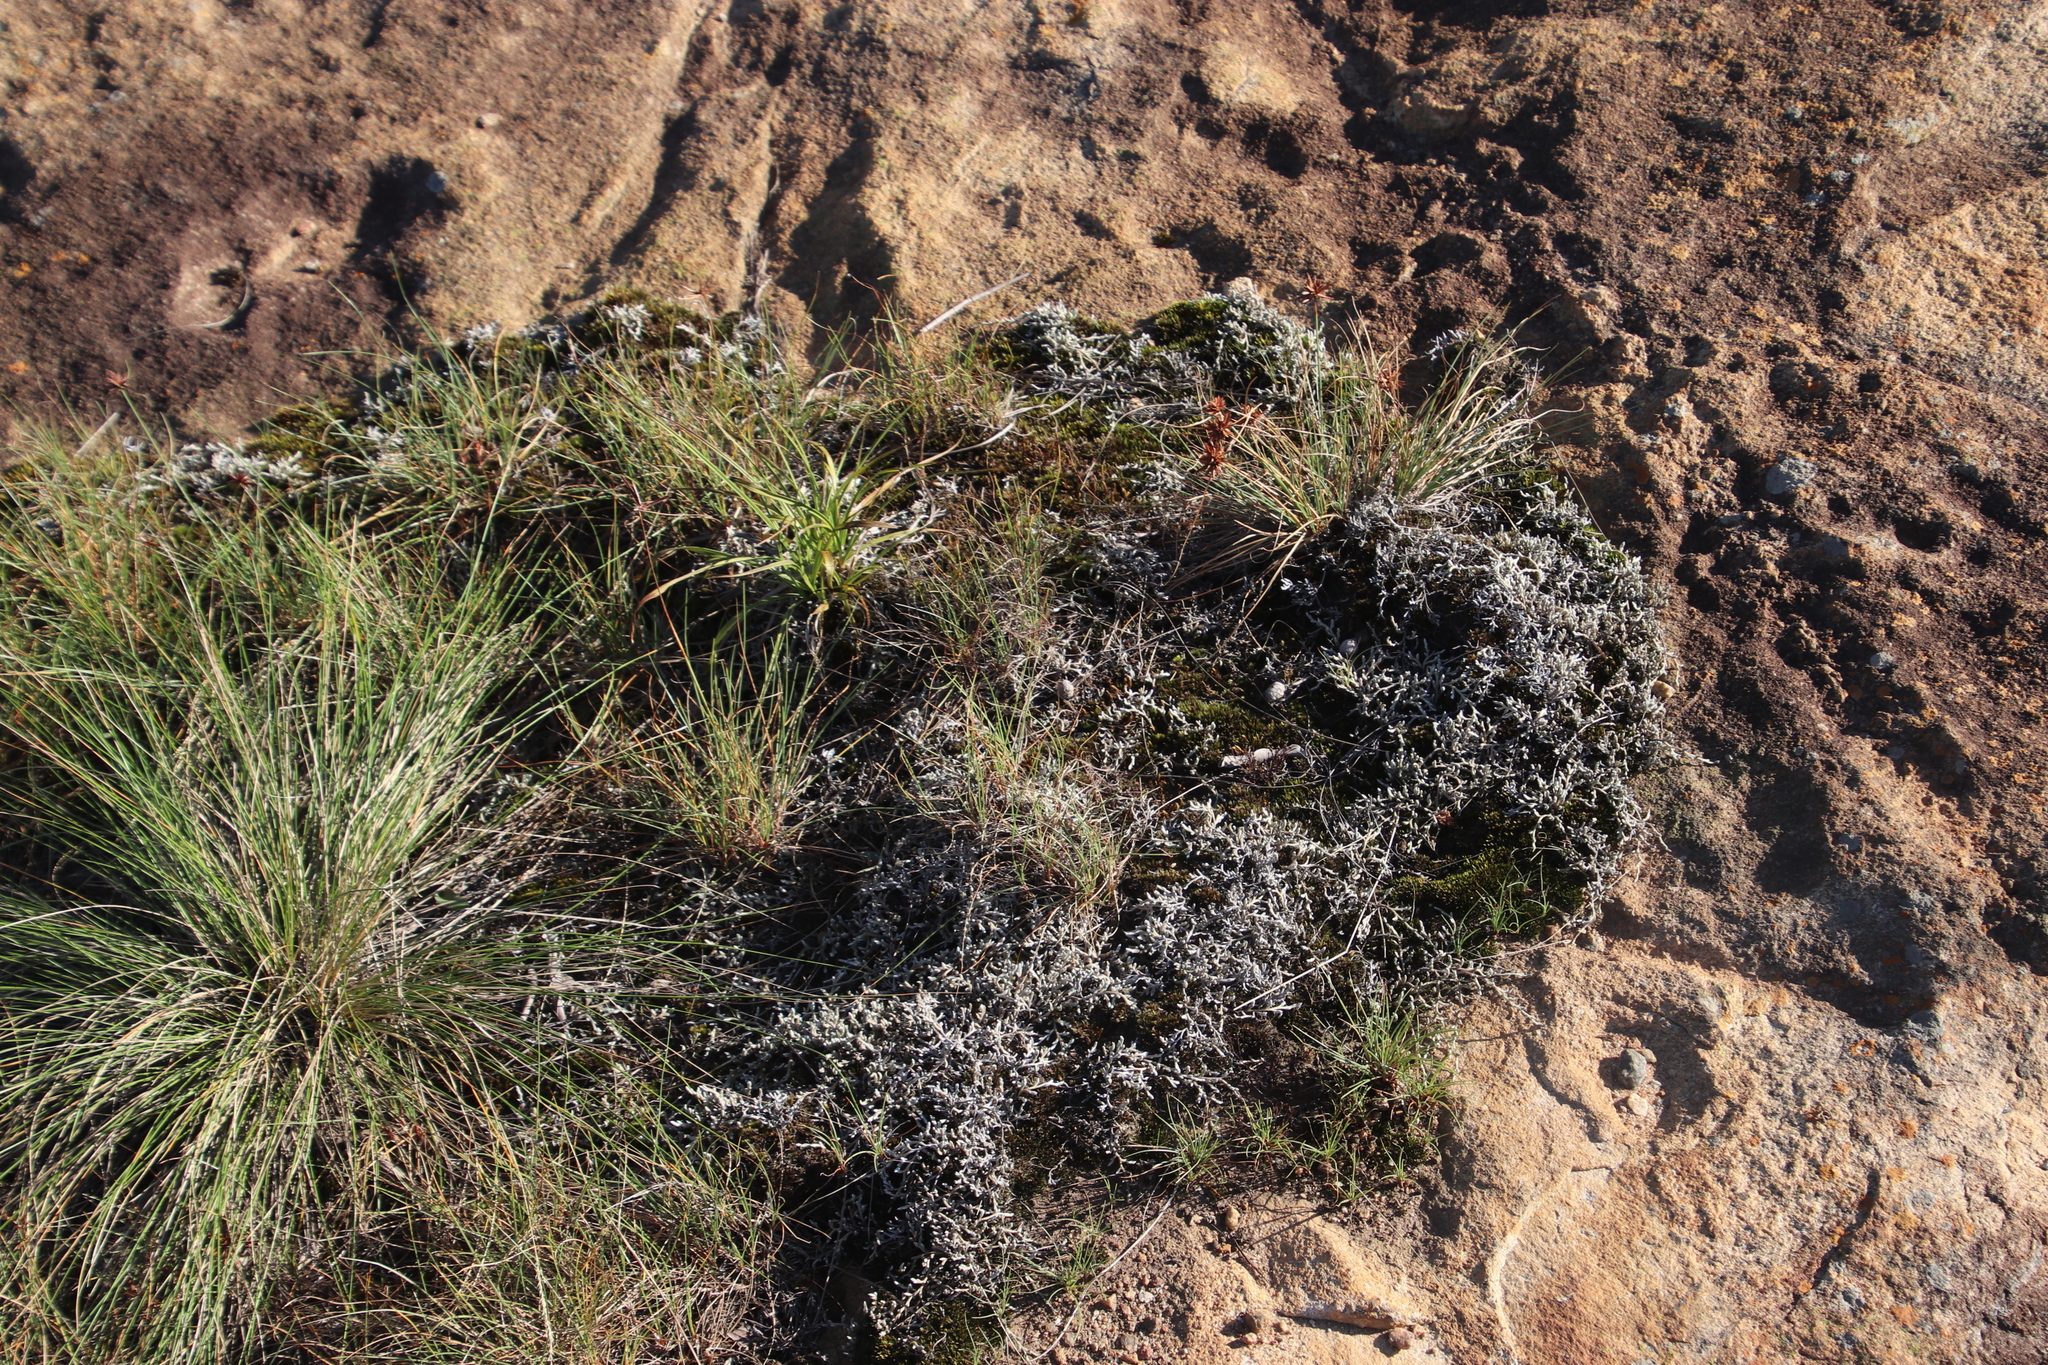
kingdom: Plantae
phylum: Tracheophyta
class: Lycopodiopsida
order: Selaginellales
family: Selaginellaceae
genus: Selaginella
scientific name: Selaginella dregei
